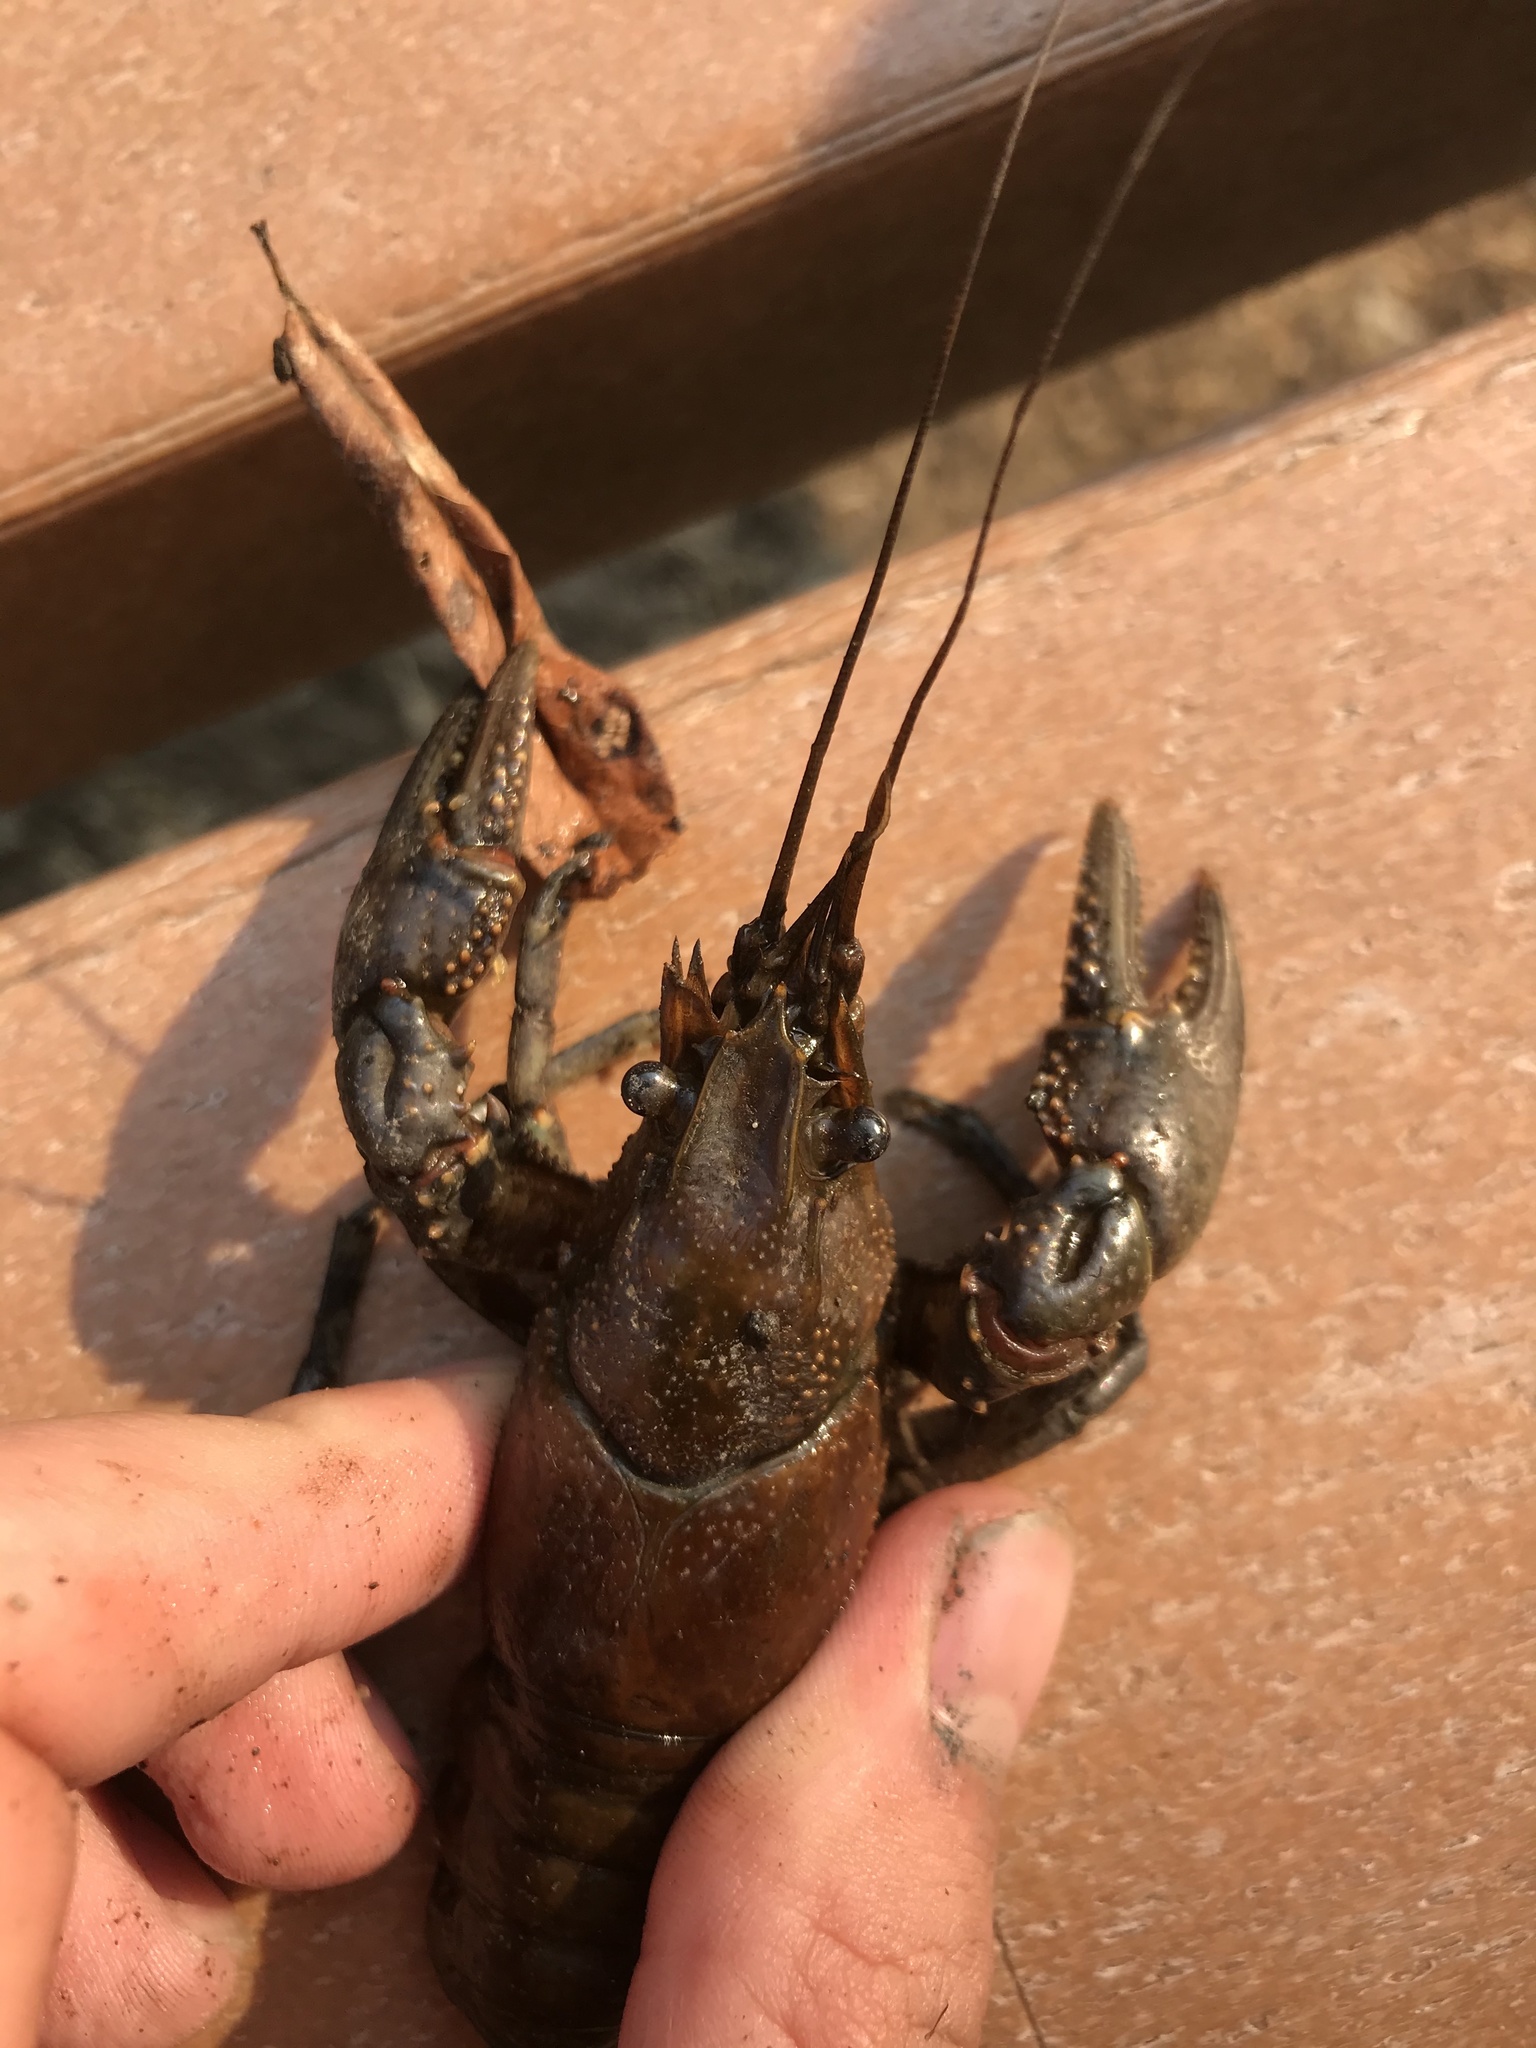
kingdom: Animalia
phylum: Arthropoda
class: Malacostraca
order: Decapoda
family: Cambaridae
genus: Faxonius
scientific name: Faxonius virilis
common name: Virile crayfish
